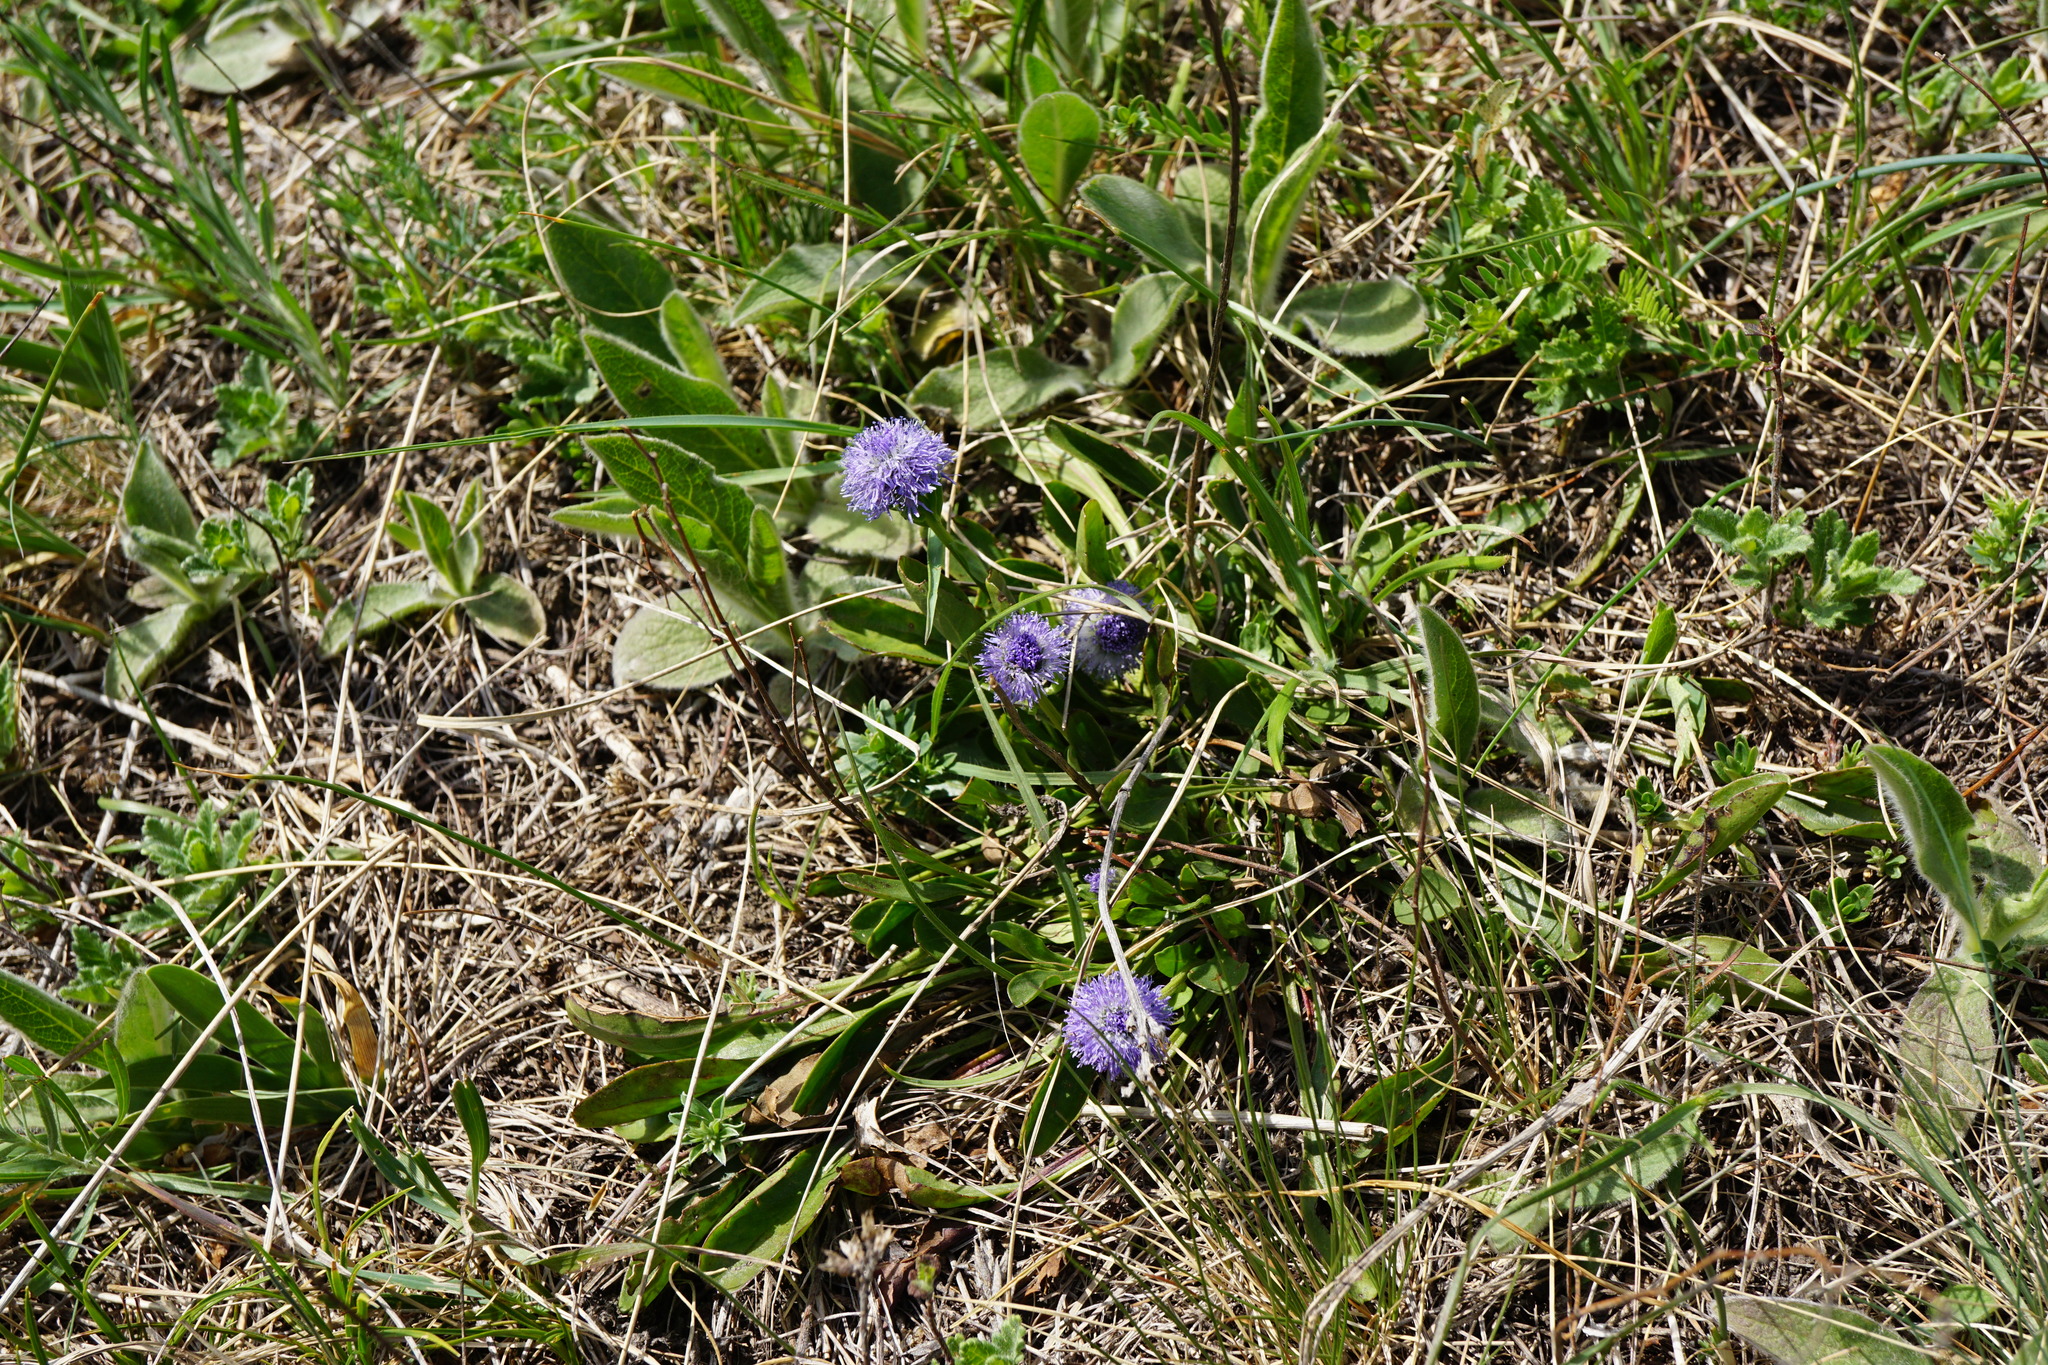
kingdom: Plantae
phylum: Tracheophyta
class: Magnoliopsida
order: Lamiales
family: Plantaginaceae
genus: Globularia
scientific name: Globularia bisnagarica
